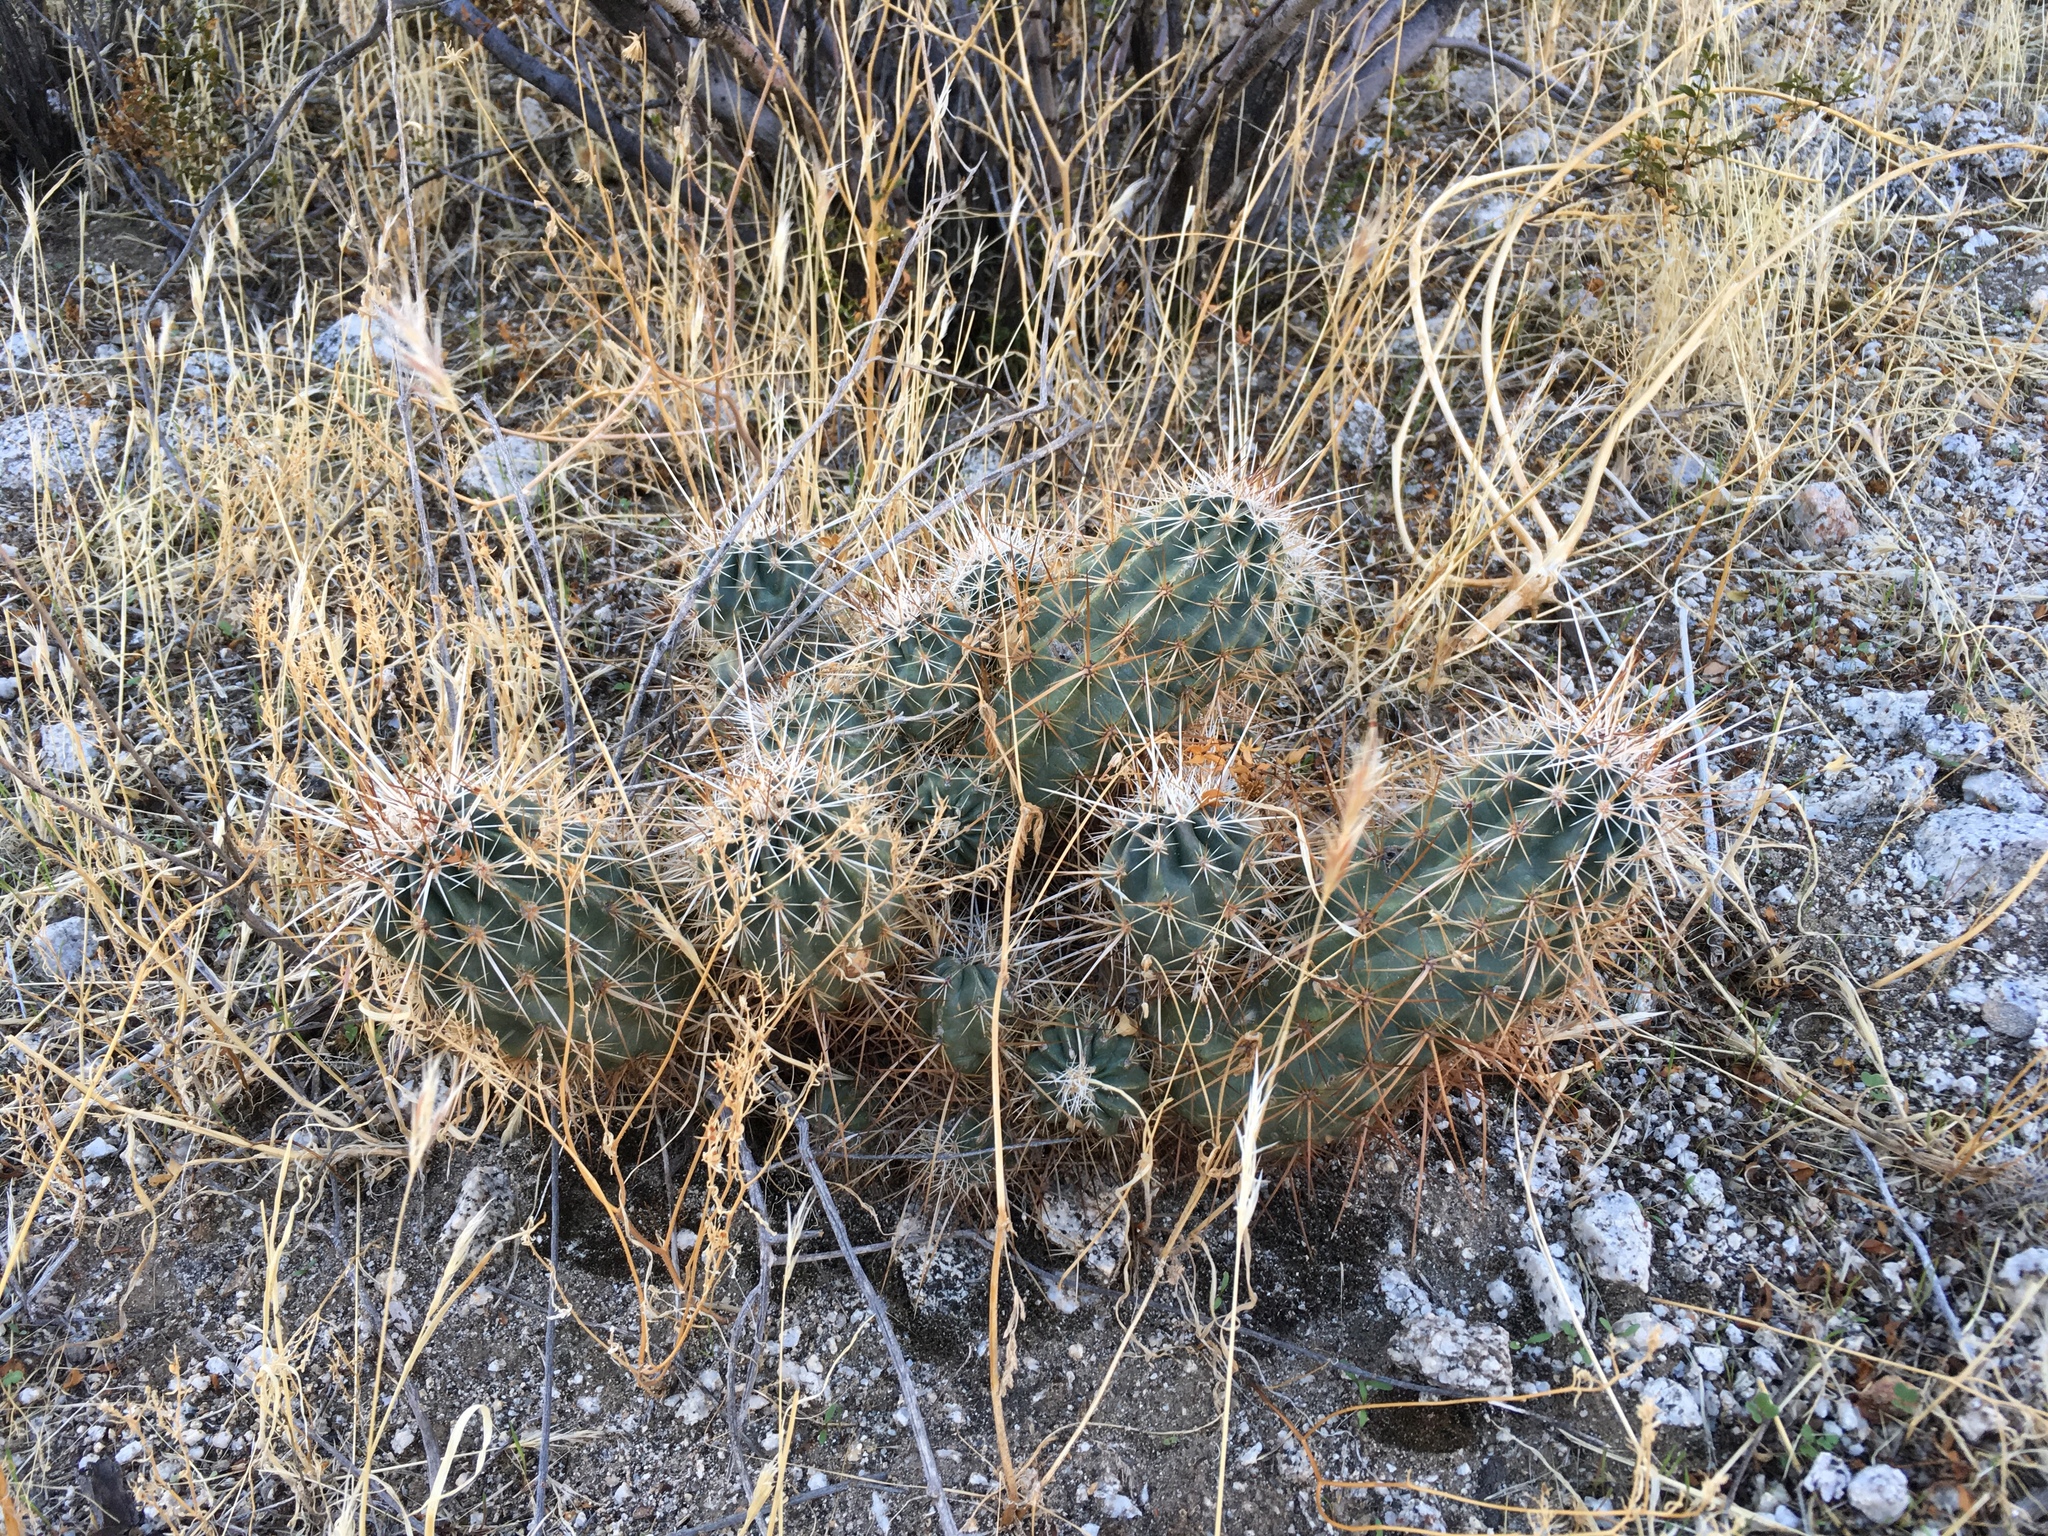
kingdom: Plantae
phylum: Tracheophyta
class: Magnoliopsida
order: Caryophyllales
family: Cactaceae
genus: Echinocereus
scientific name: Echinocereus engelmannii
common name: Engelmann's hedgehog cactus
